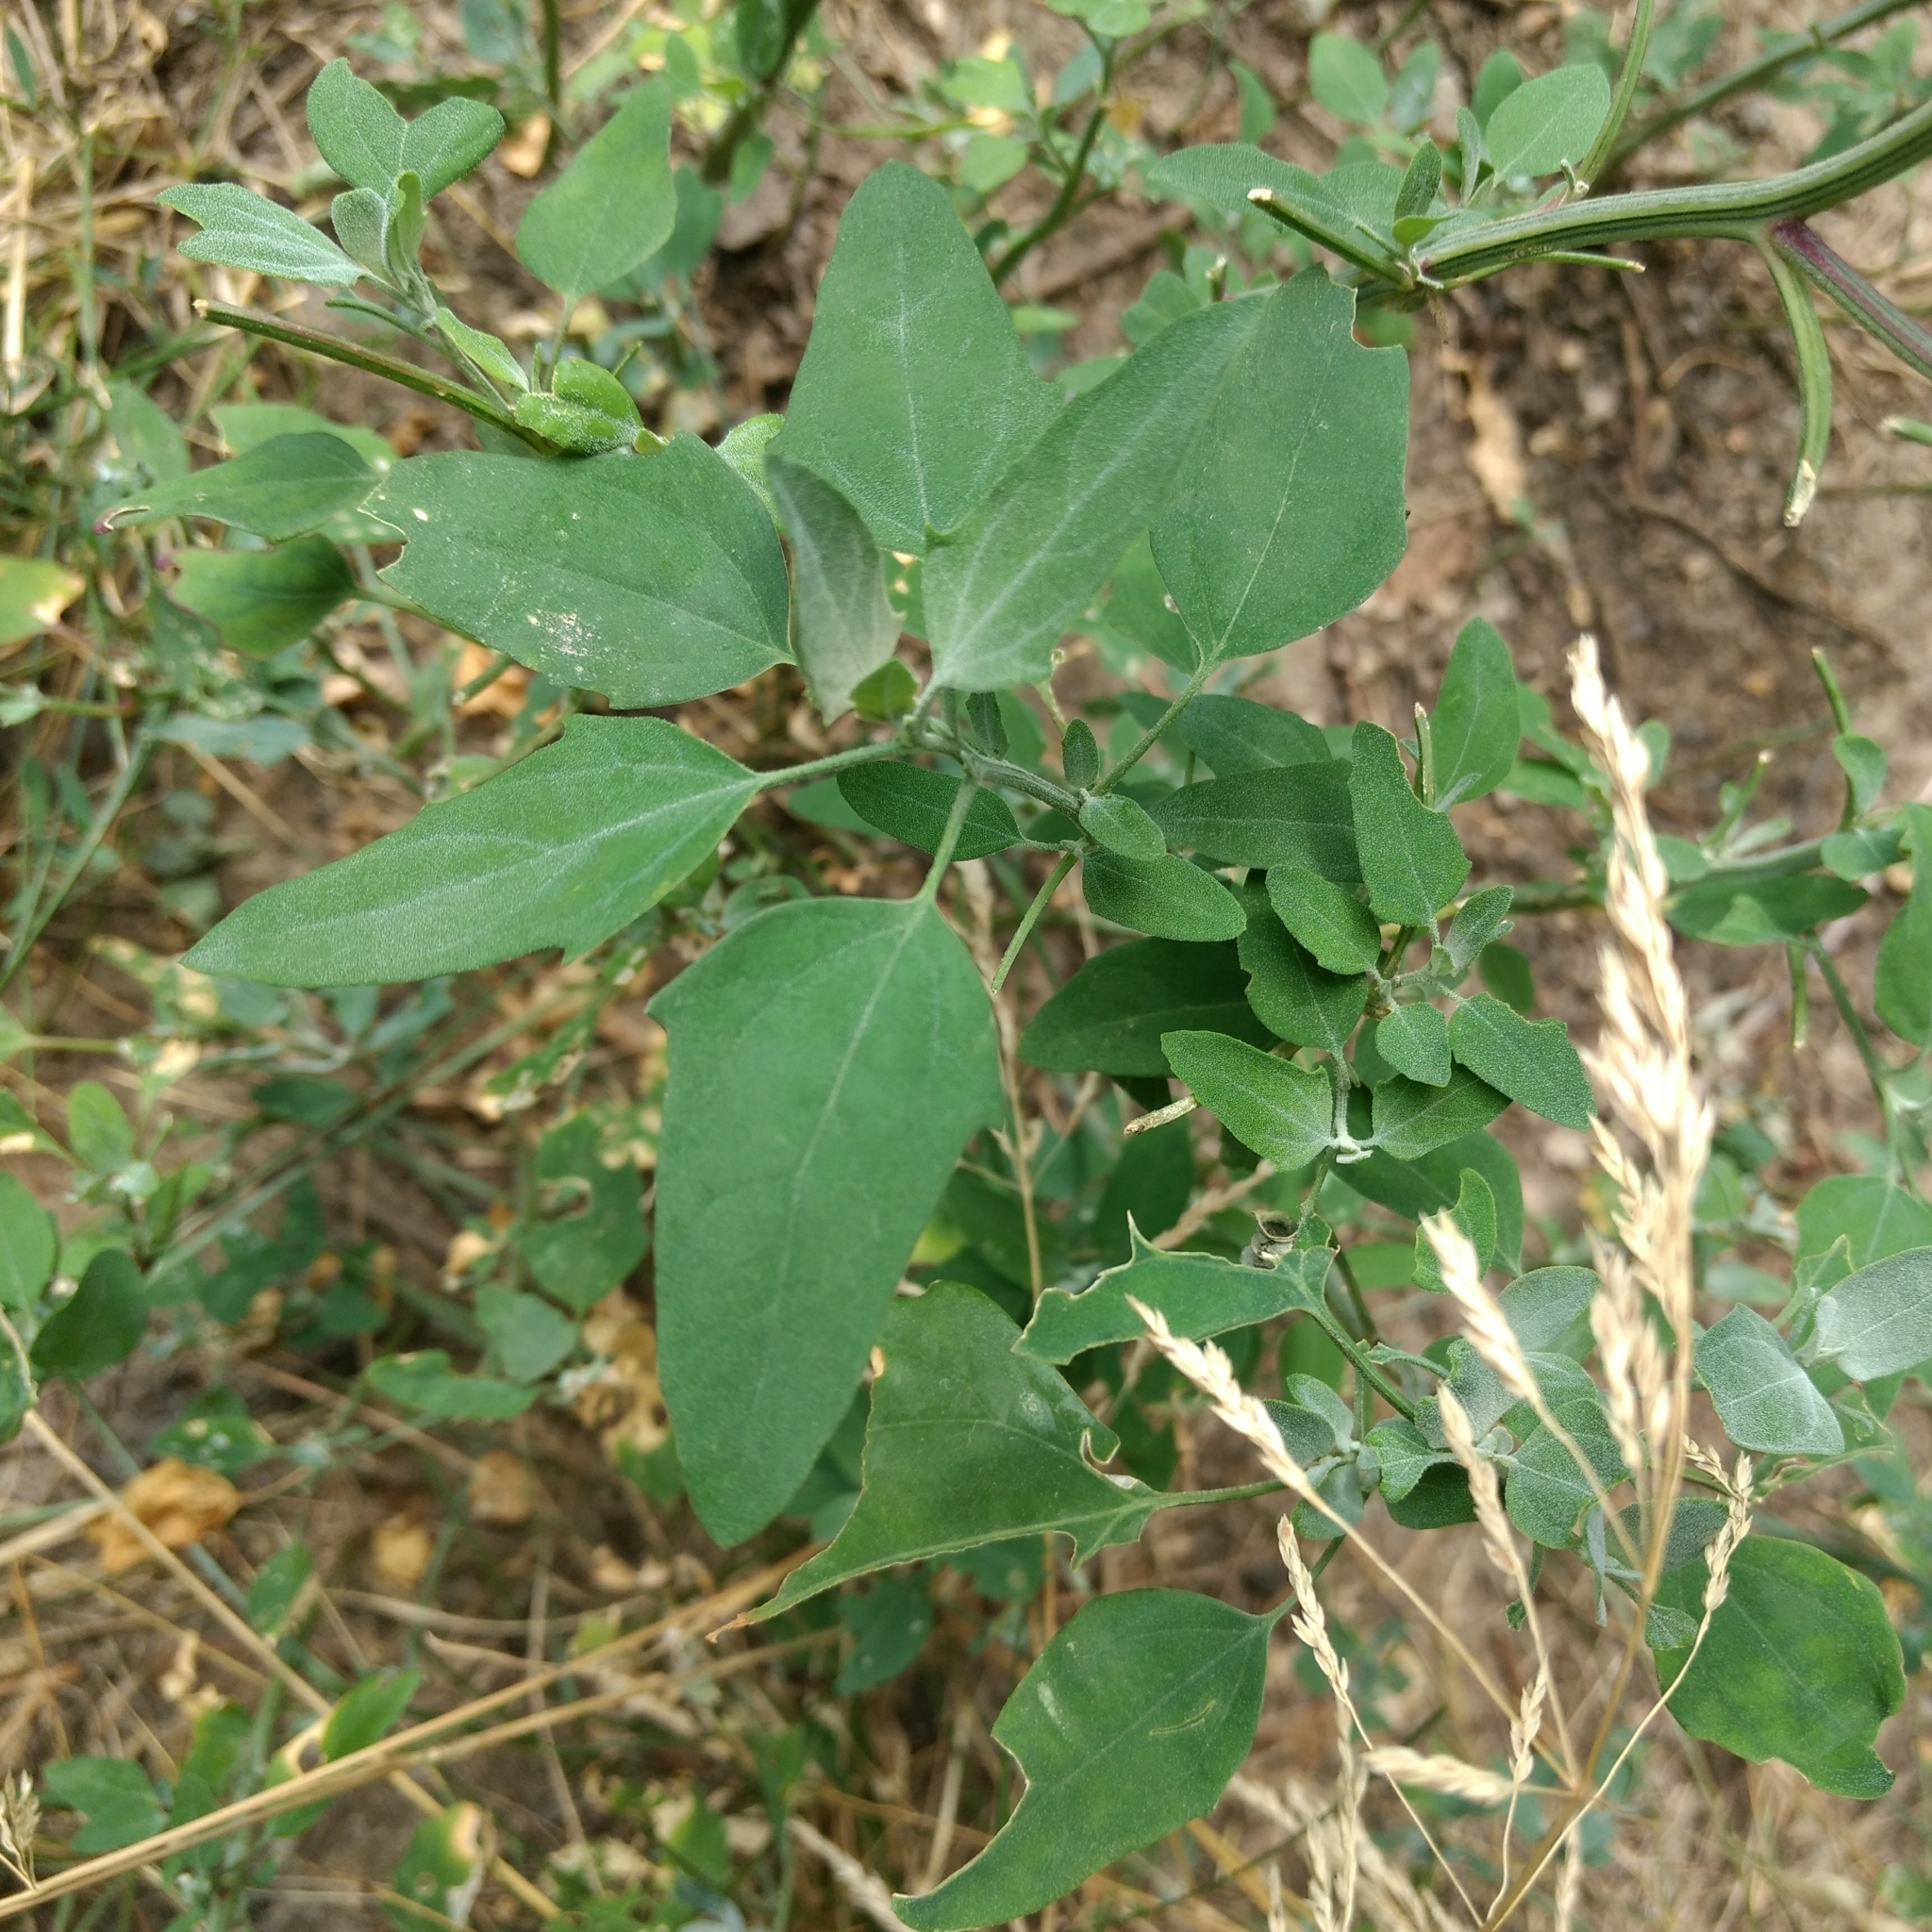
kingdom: Plantae
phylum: Tracheophyta
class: Magnoliopsida
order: Caryophyllales
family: Amaranthaceae
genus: Chenopodium
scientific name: Chenopodium album
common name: Fat-hen
